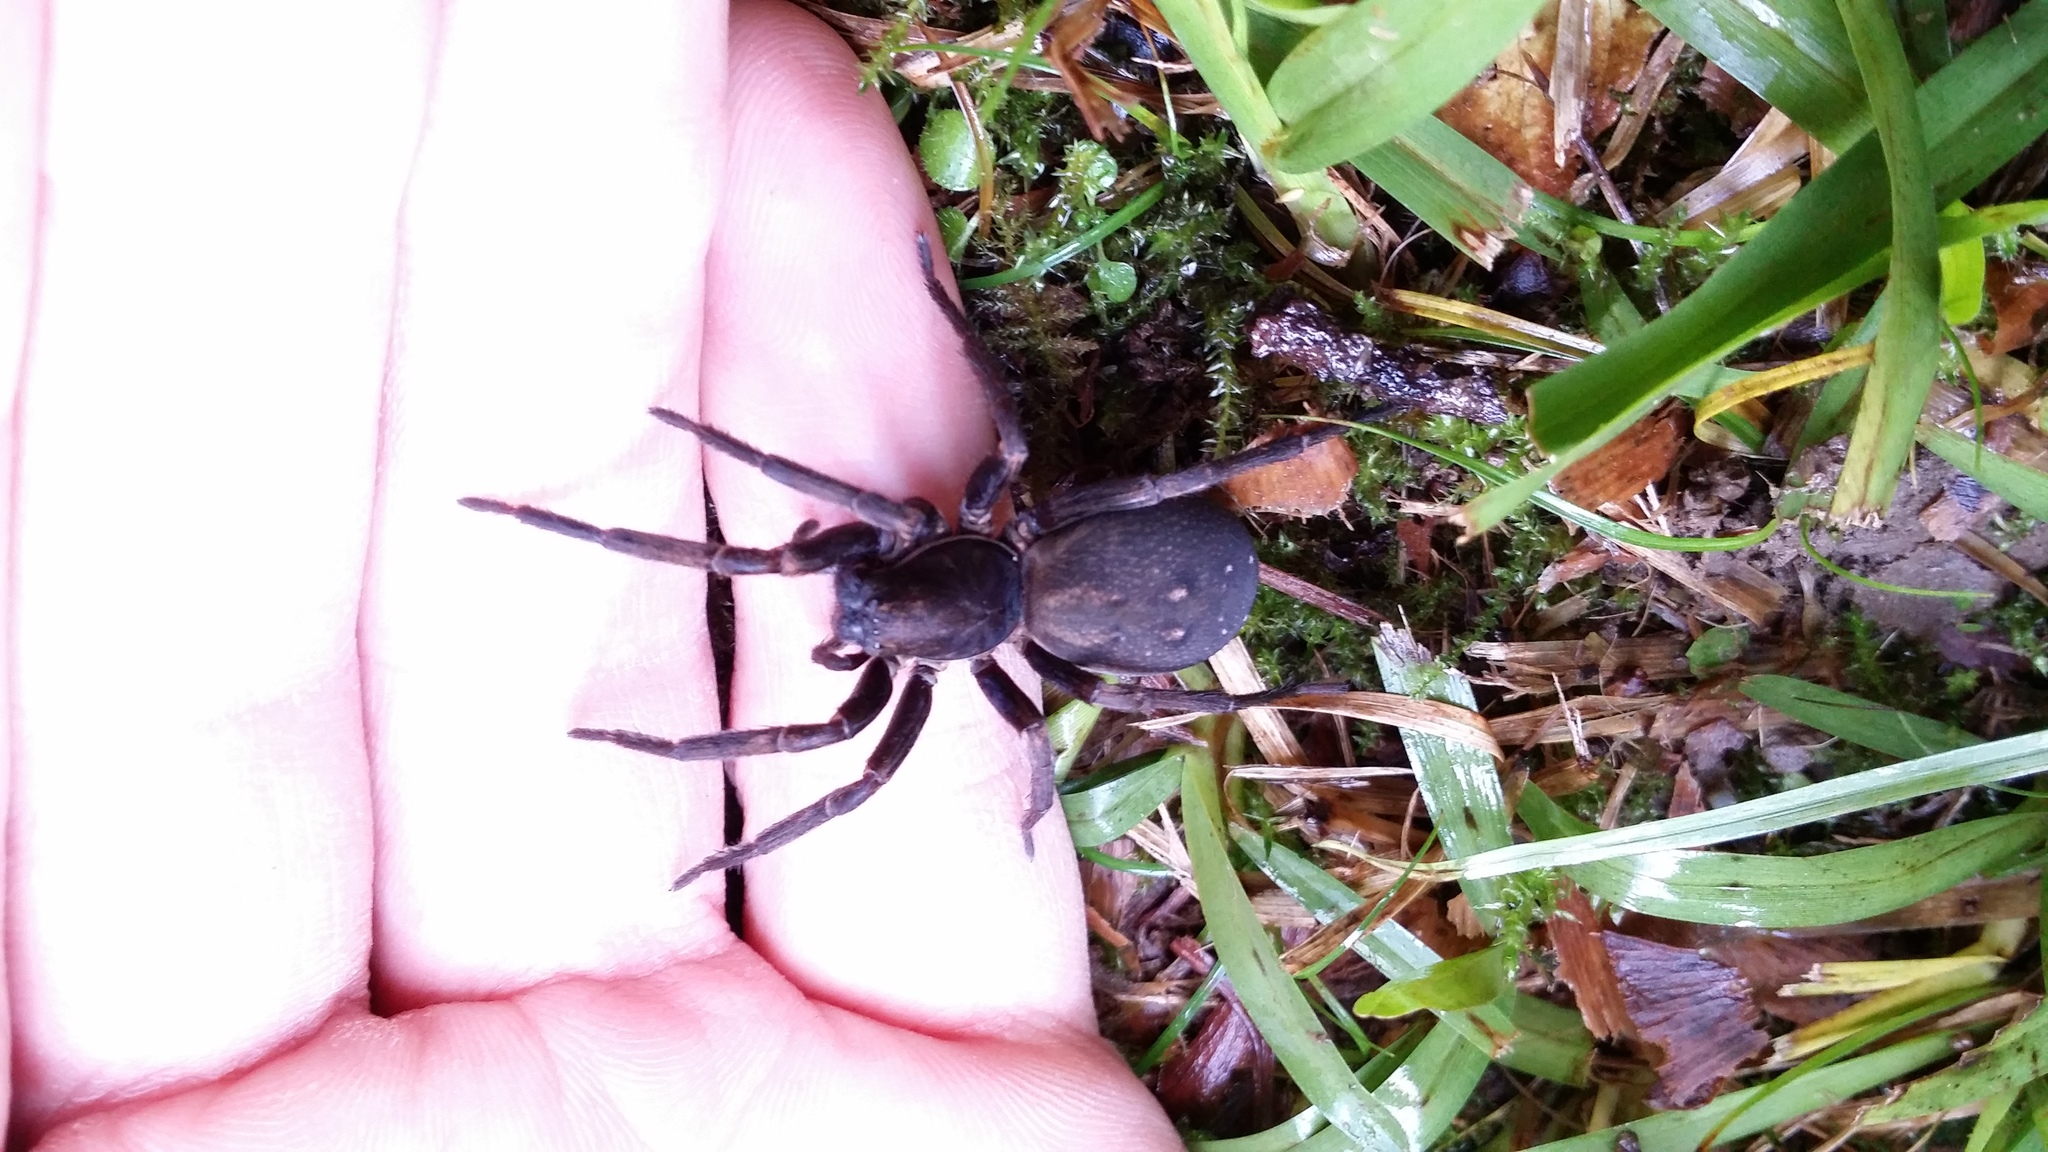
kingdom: Animalia
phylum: Arthropoda
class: Arachnida
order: Araneae
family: Zoropsidae
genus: Uliodon
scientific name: Uliodon albopunctatus
